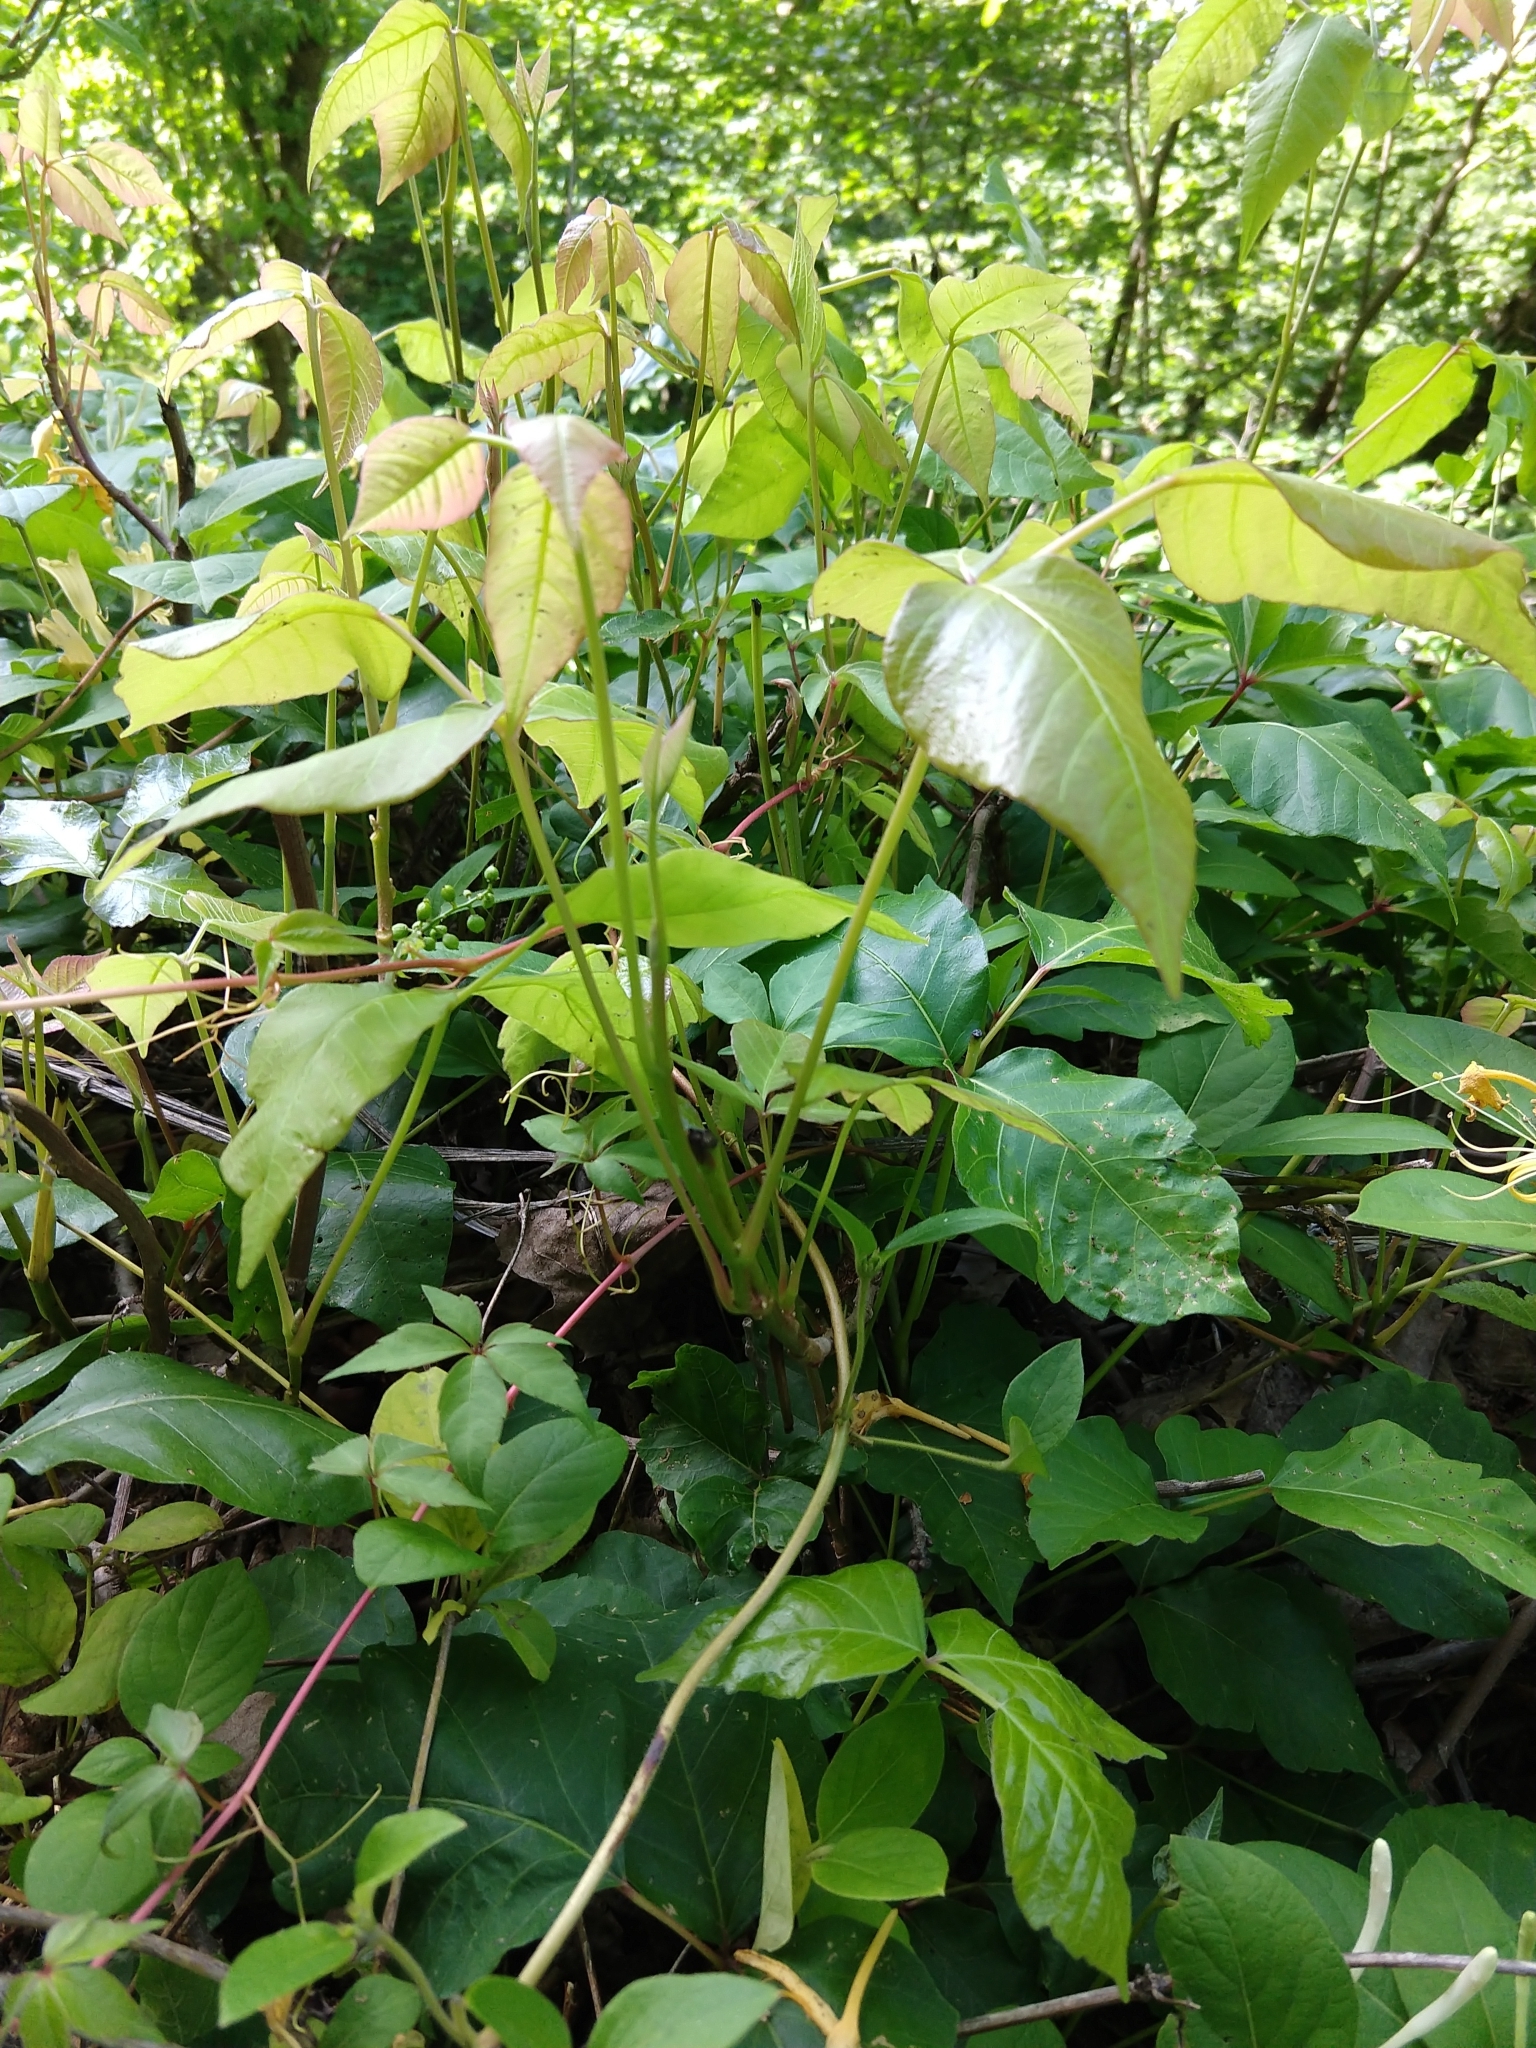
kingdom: Plantae
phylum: Tracheophyta
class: Magnoliopsida
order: Sapindales
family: Anacardiaceae
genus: Toxicodendron
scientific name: Toxicodendron radicans
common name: Poison ivy
